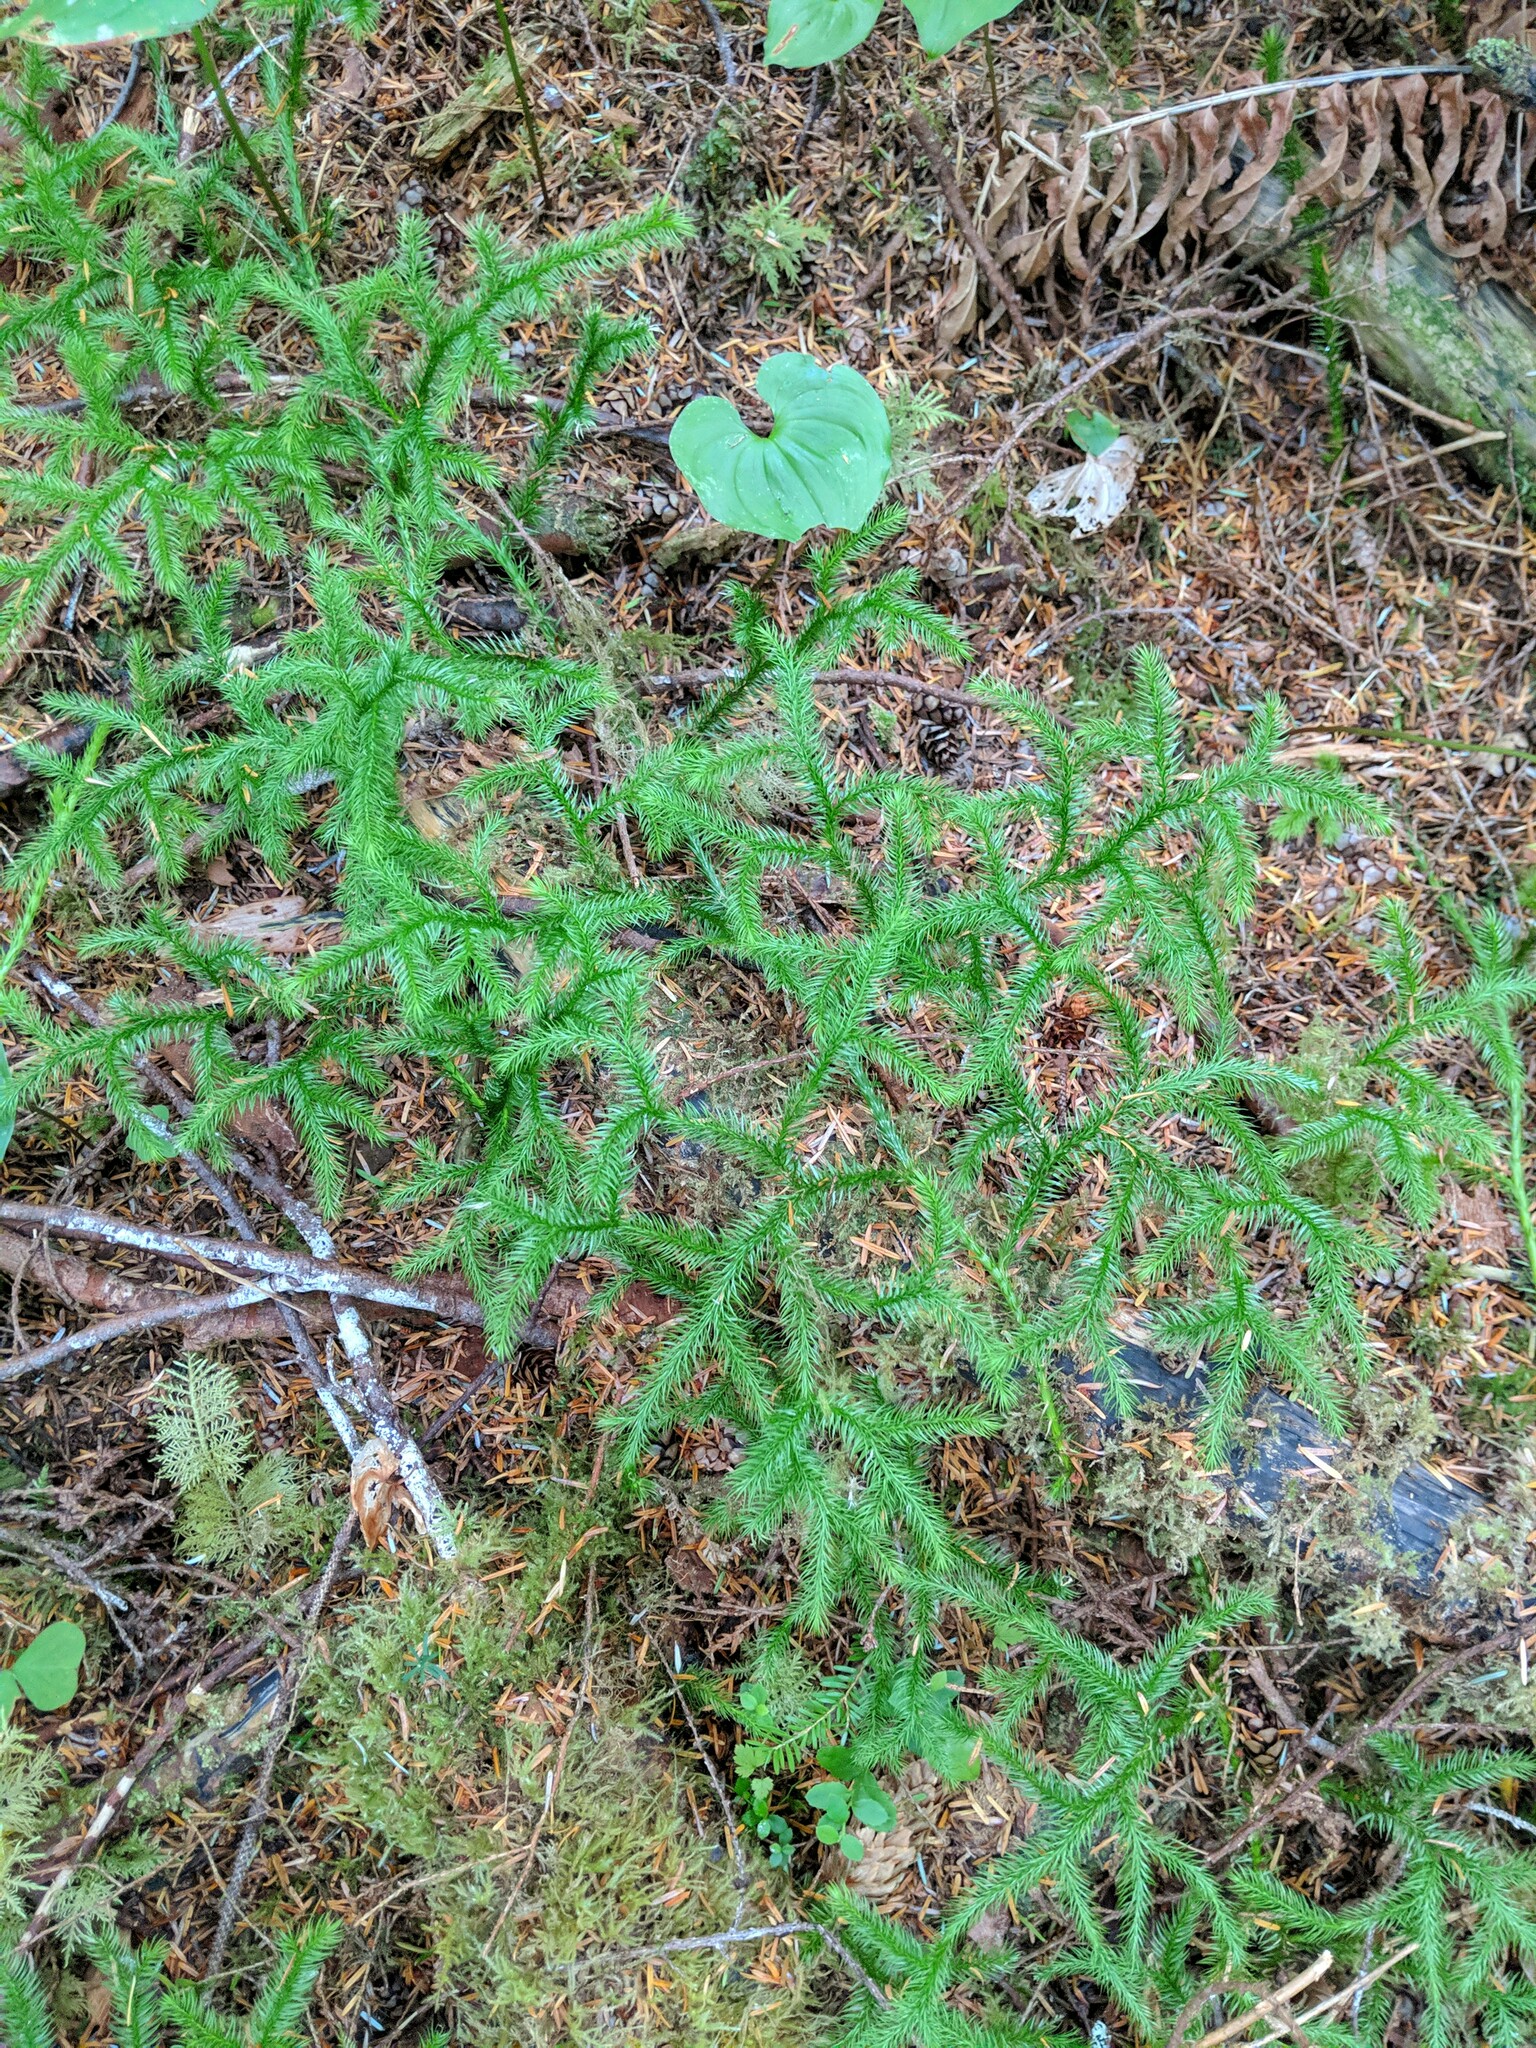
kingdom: Plantae
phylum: Tracheophyta
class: Lycopodiopsida
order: Lycopodiales
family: Lycopodiaceae
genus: Lycopodium
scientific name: Lycopodium clavatum
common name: Stag's-horn clubmoss
